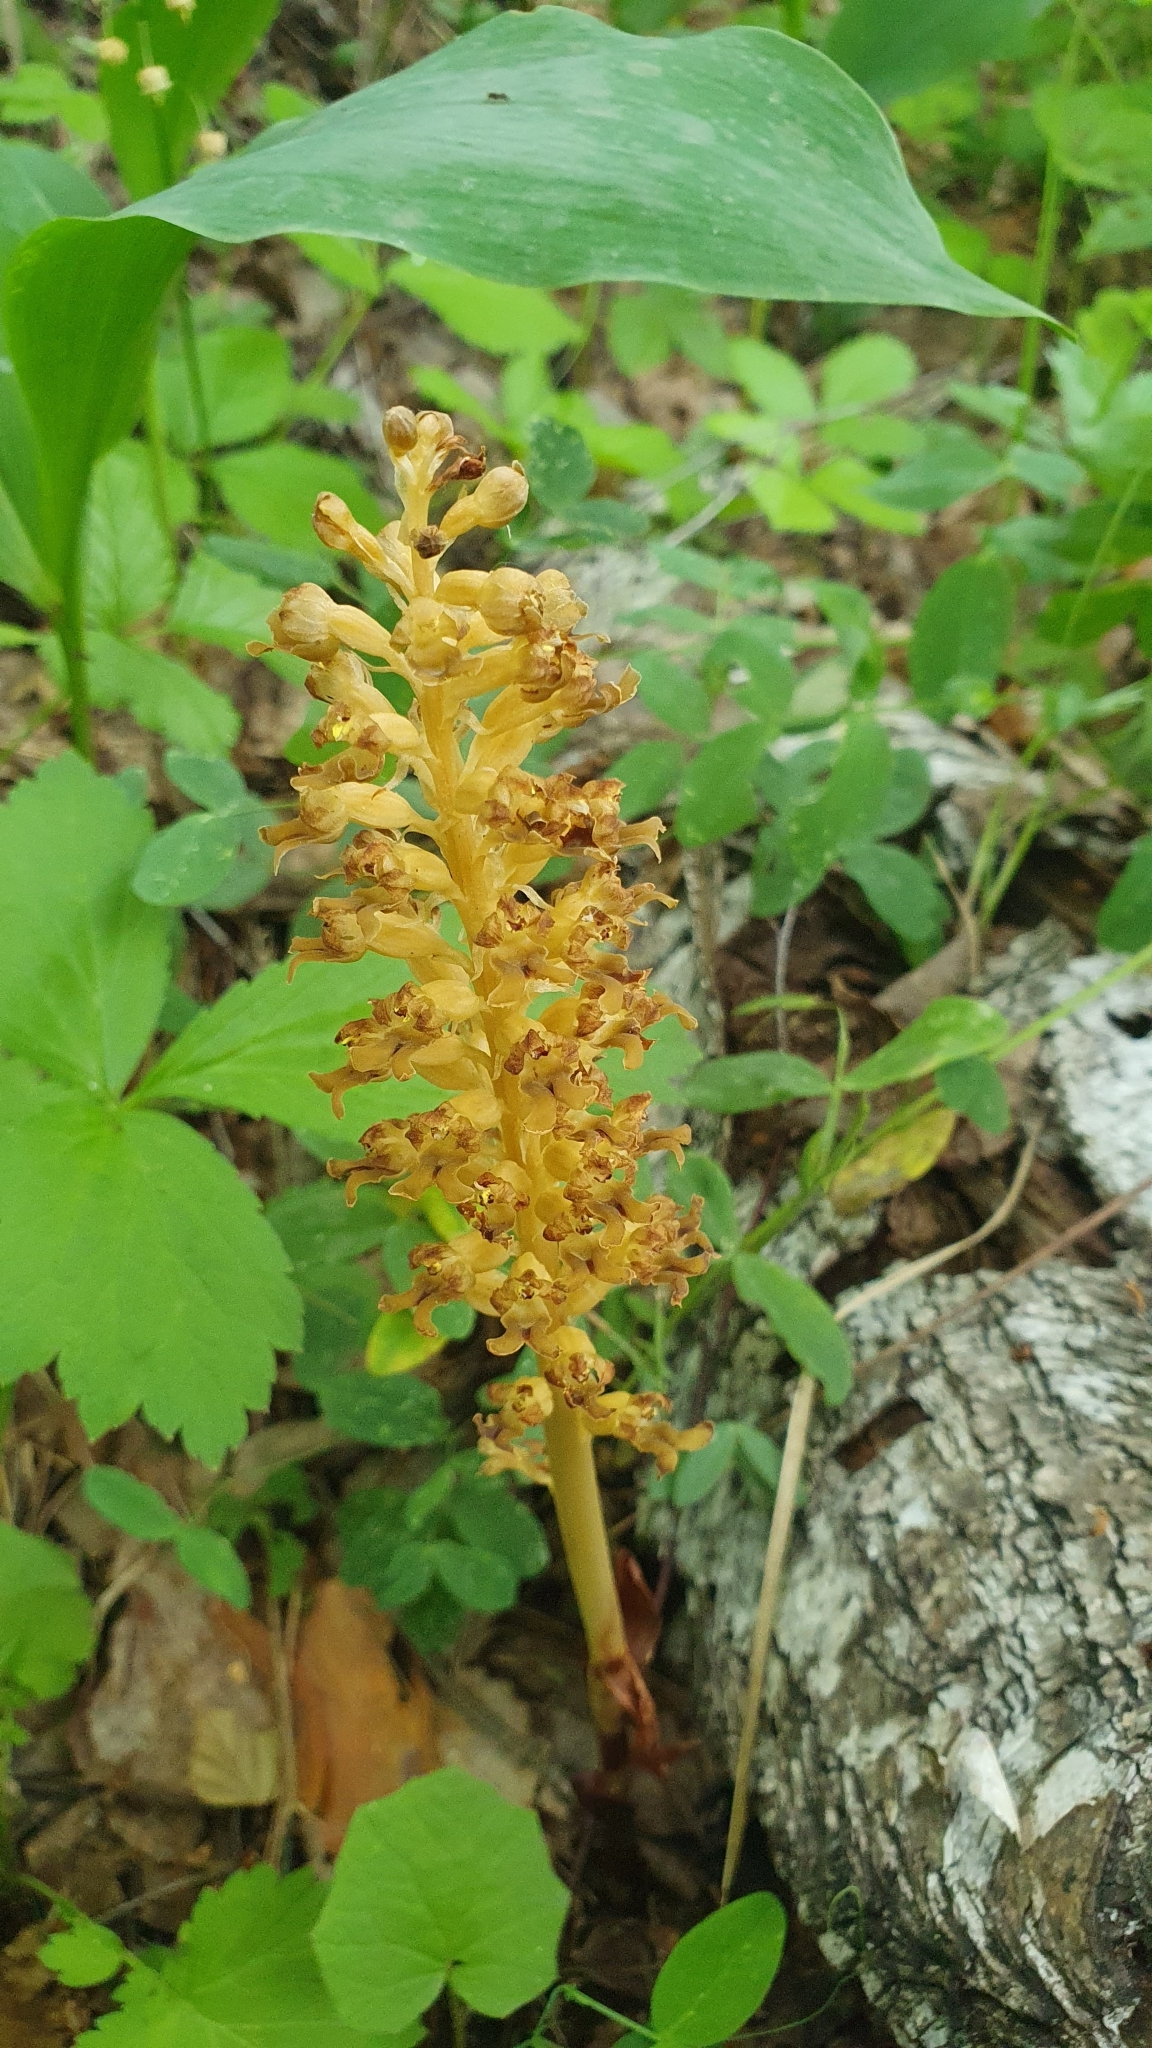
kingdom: Plantae
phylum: Tracheophyta
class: Liliopsida
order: Asparagales
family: Orchidaceae
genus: Neottia
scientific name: Neottia nidus-avis
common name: Bird's-nest orchid
